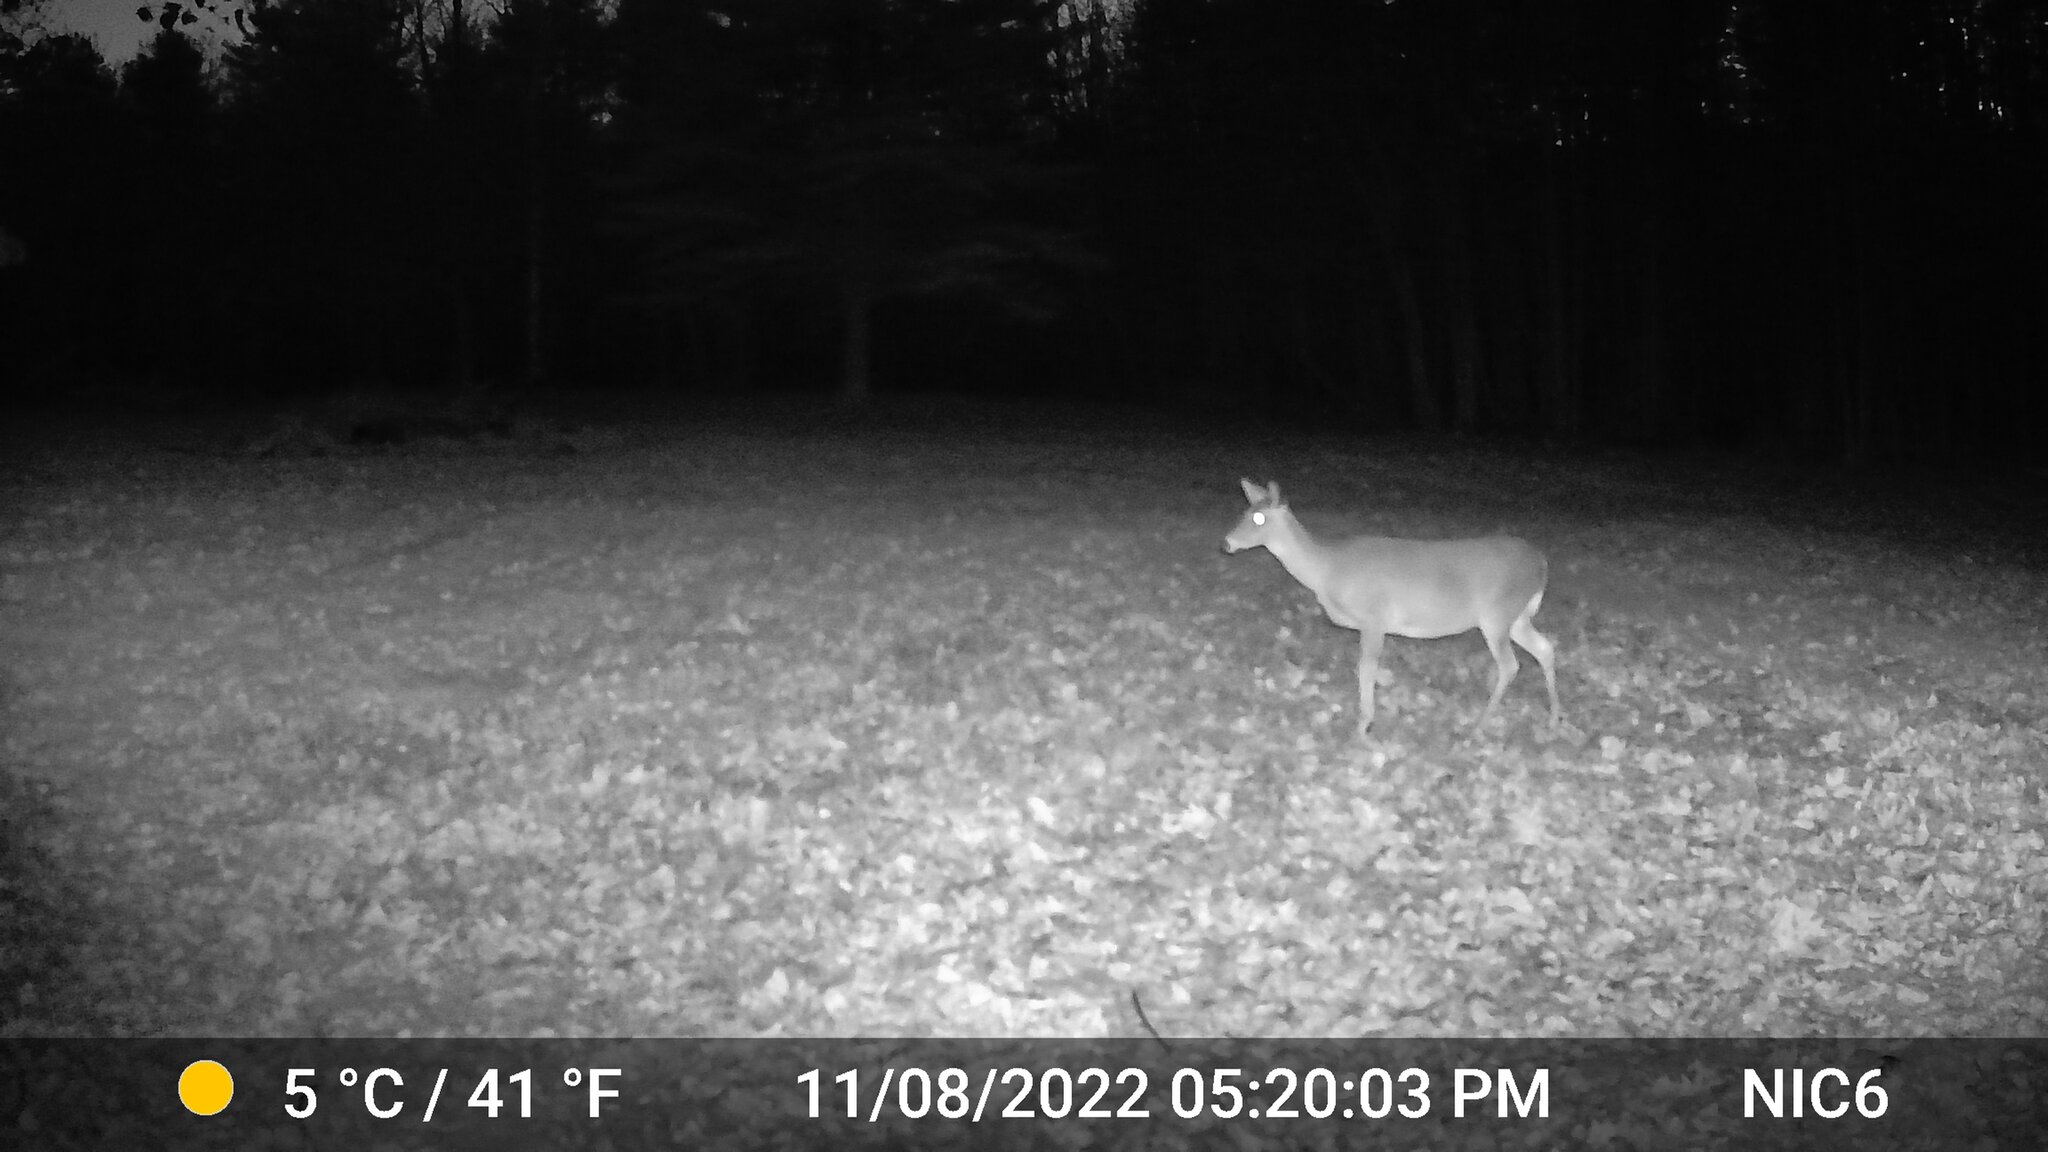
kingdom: Animalia
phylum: Chordata
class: Mammalia
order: Artiodactyla
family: Cervidae
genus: Odocoileus
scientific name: Odocoileus virginianus
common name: White-tailed deer
